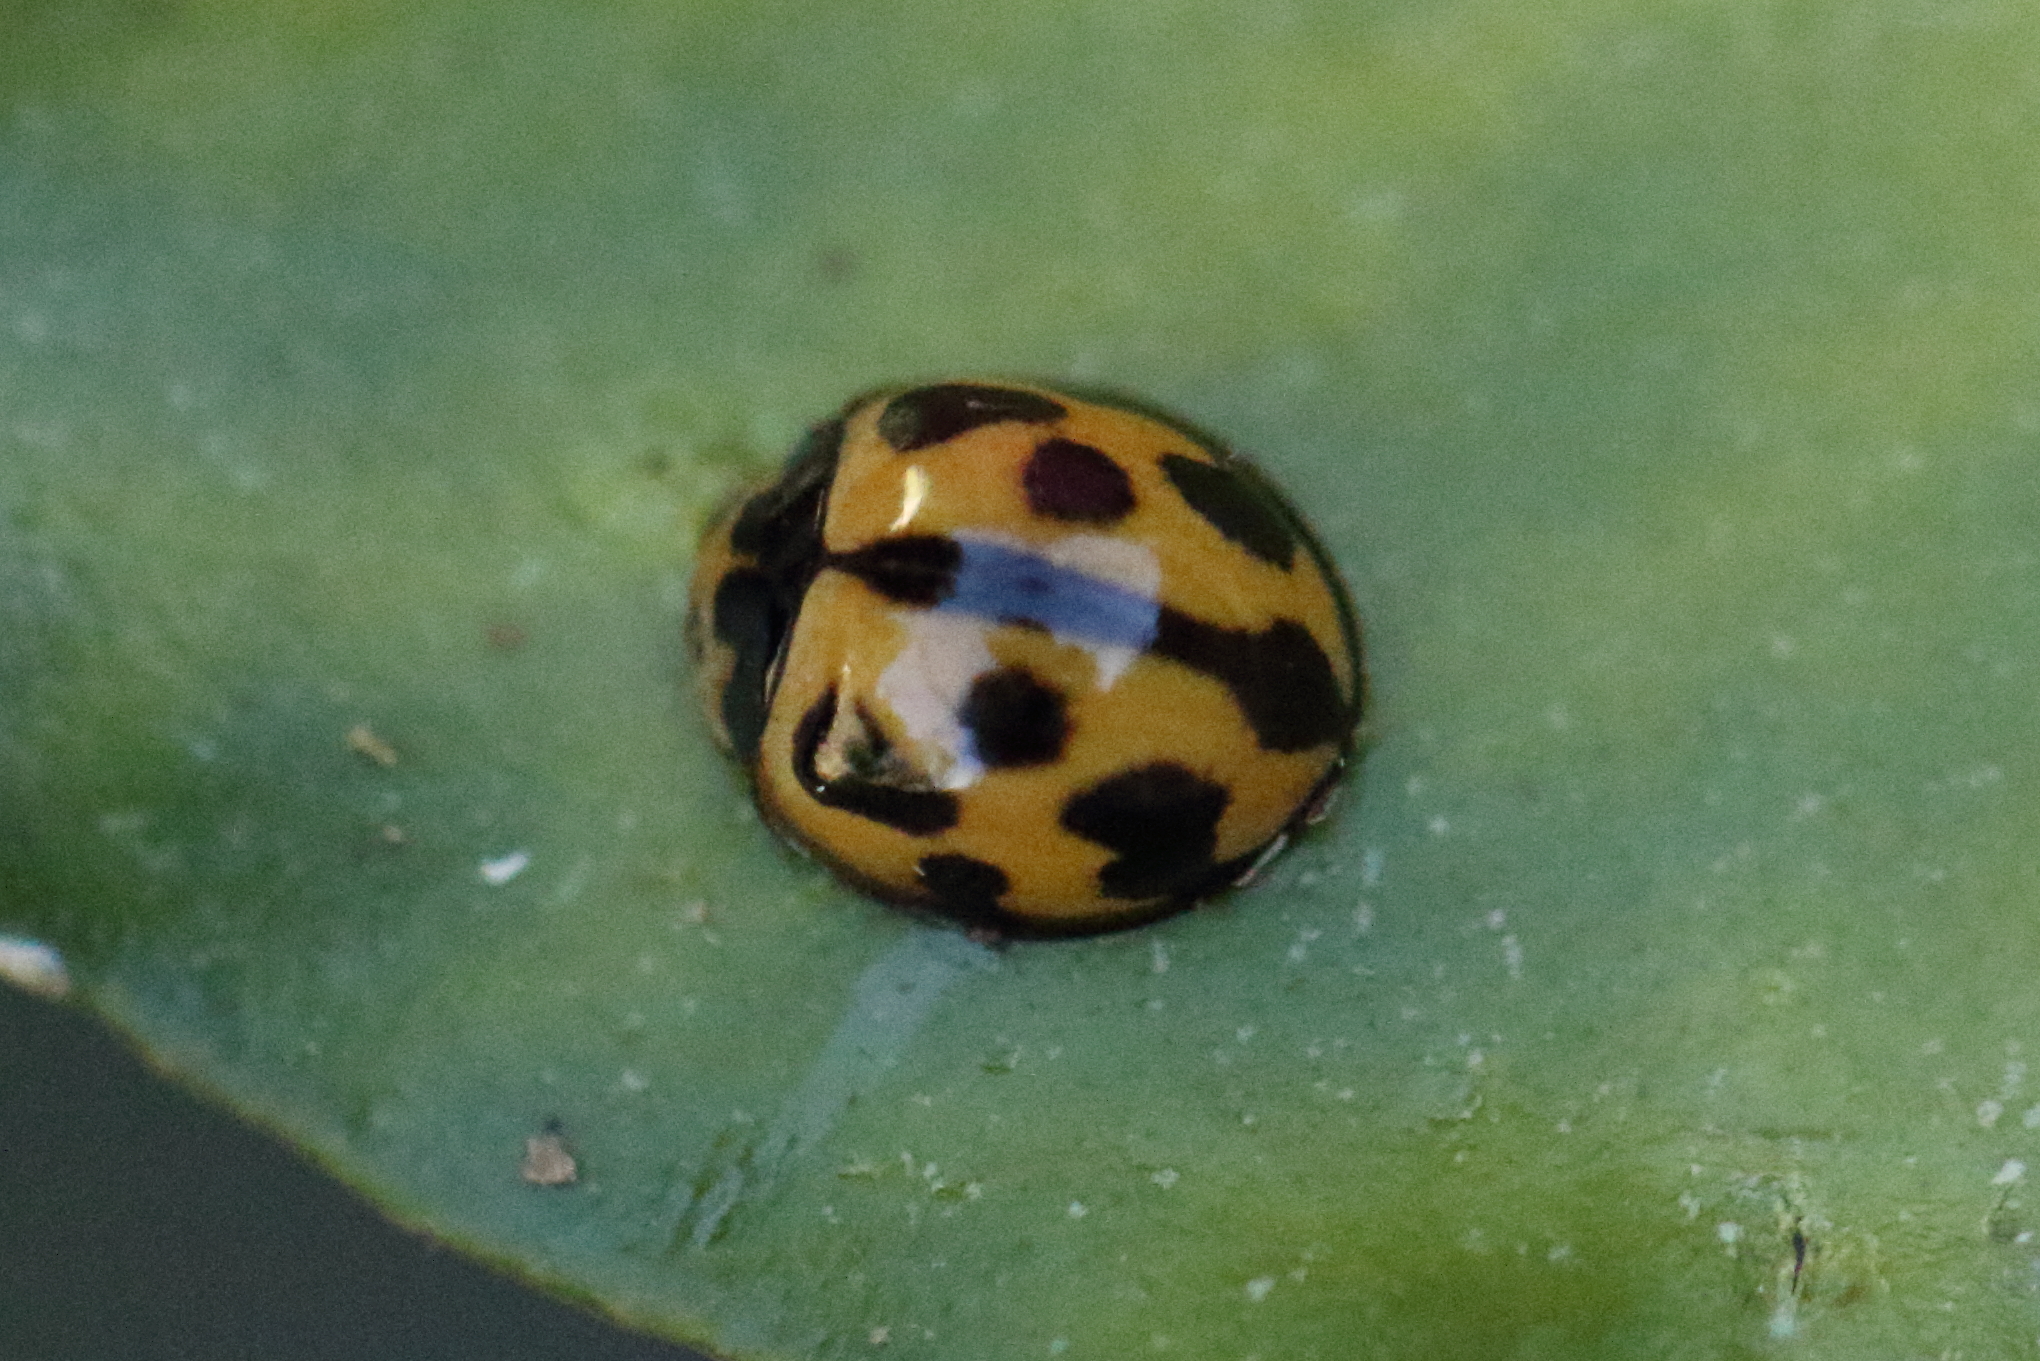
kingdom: Animalia
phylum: Arthropoda
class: Insecta
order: Coleoptera
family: Coccinellidae
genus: Coelophora
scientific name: Coelophora inaequalis
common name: Common australian lady beetle
